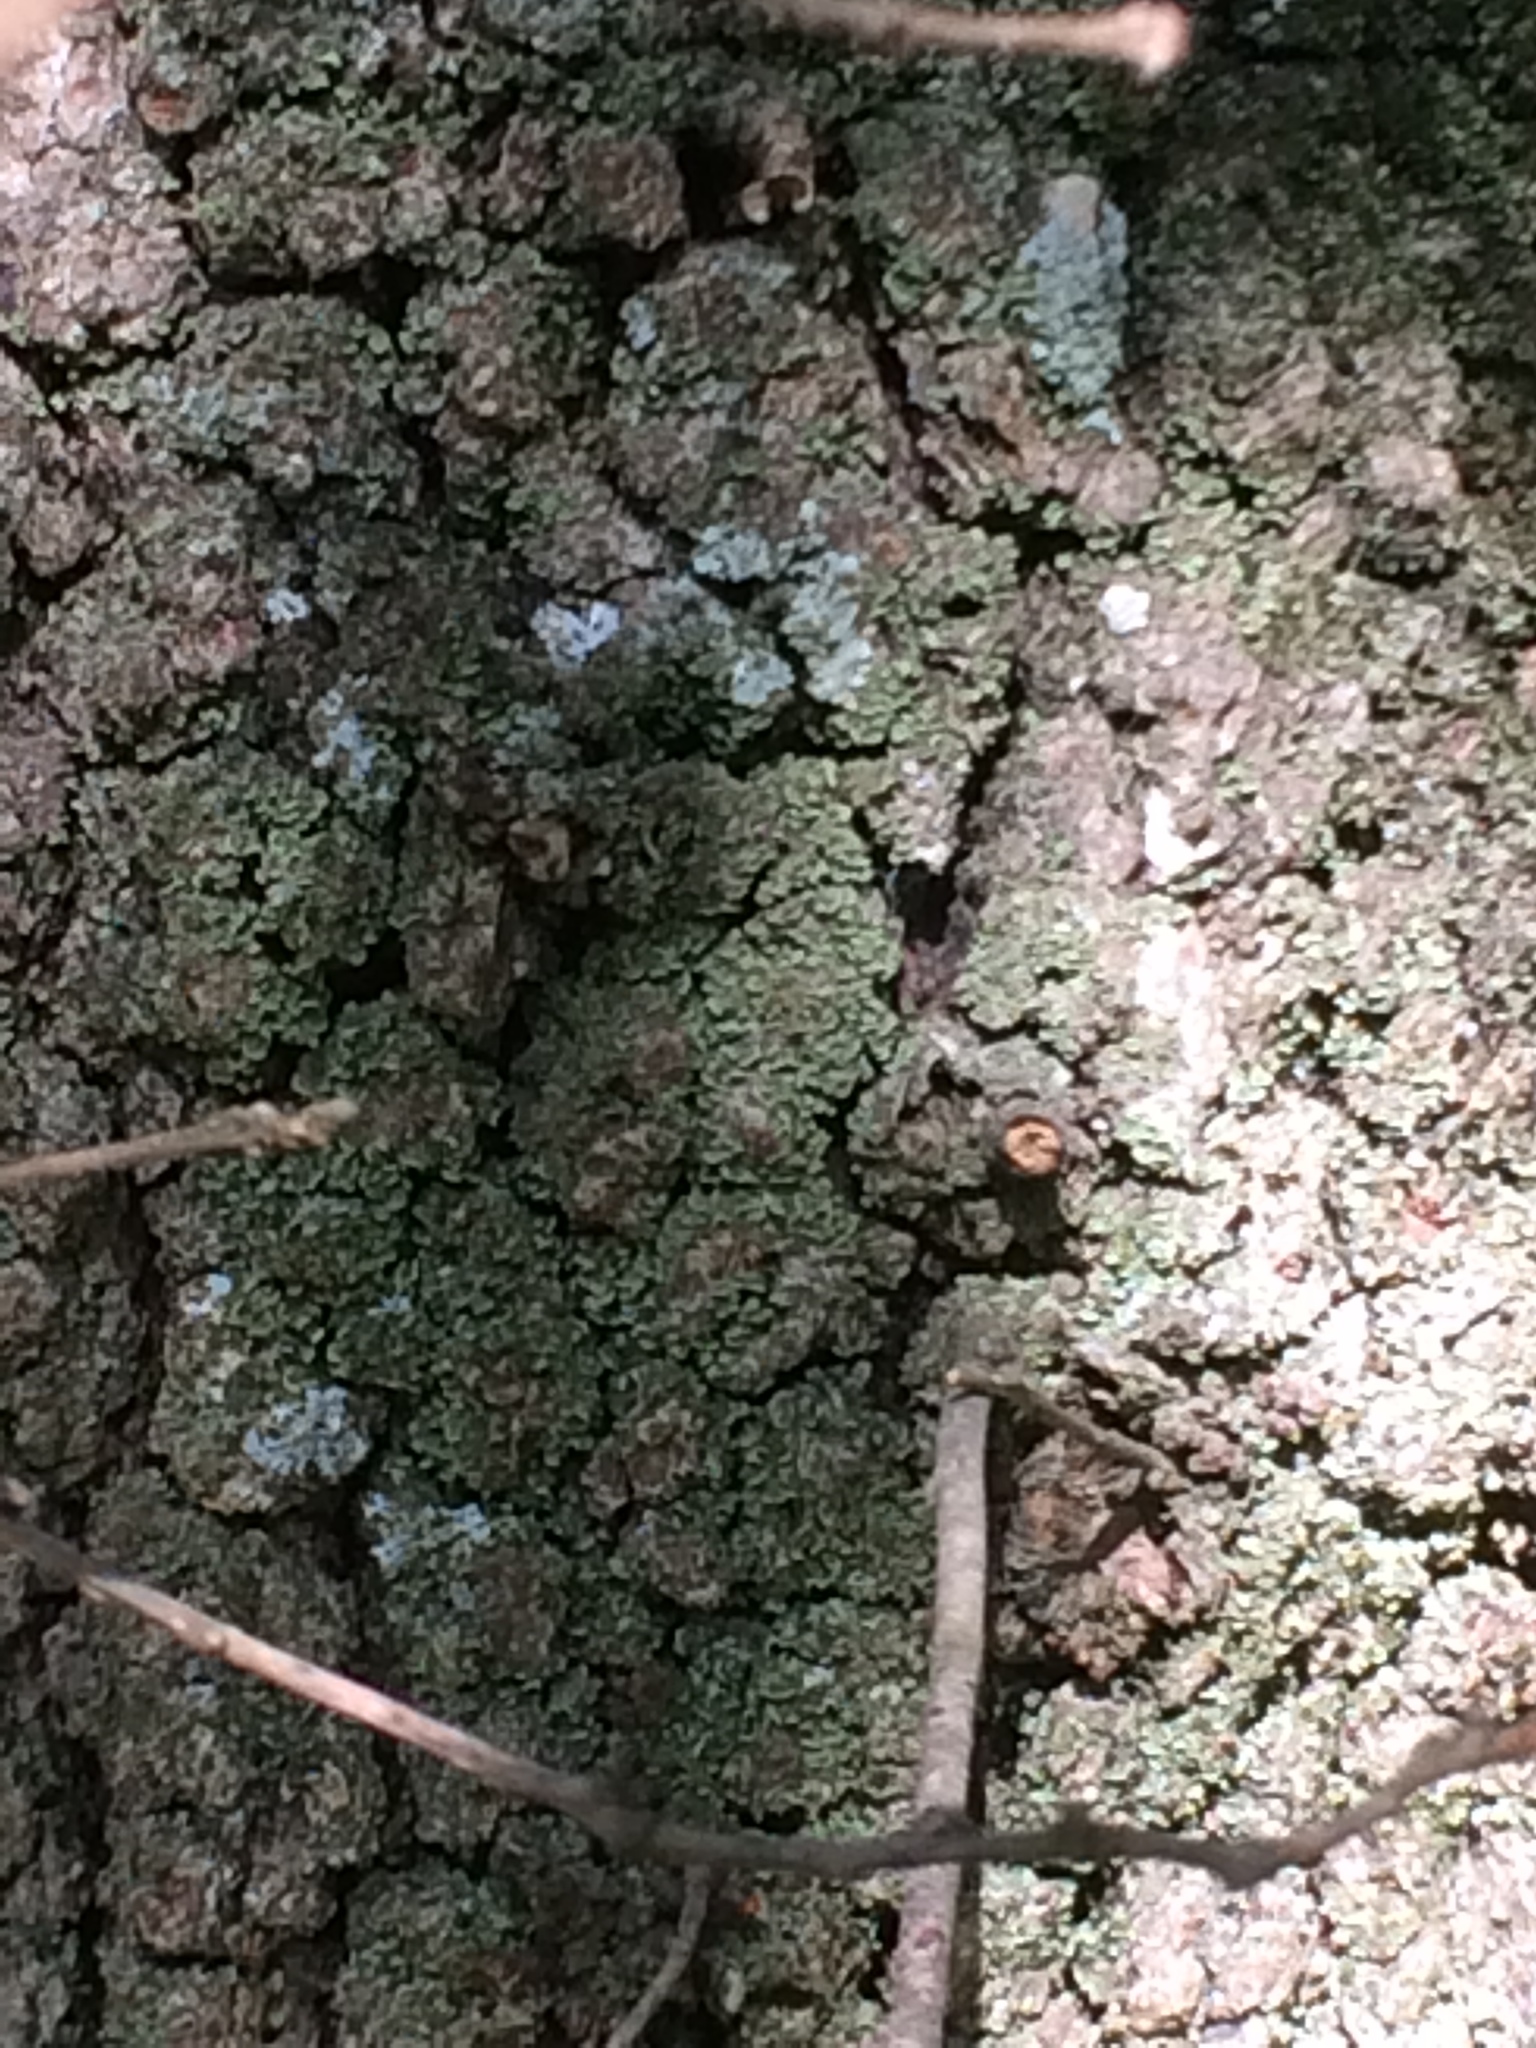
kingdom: Plantae
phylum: Tracheophyta
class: Magnoliopsida
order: Fagales
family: Fagaceae
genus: Quercus
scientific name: Quercus faginea
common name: Gall oak tree
